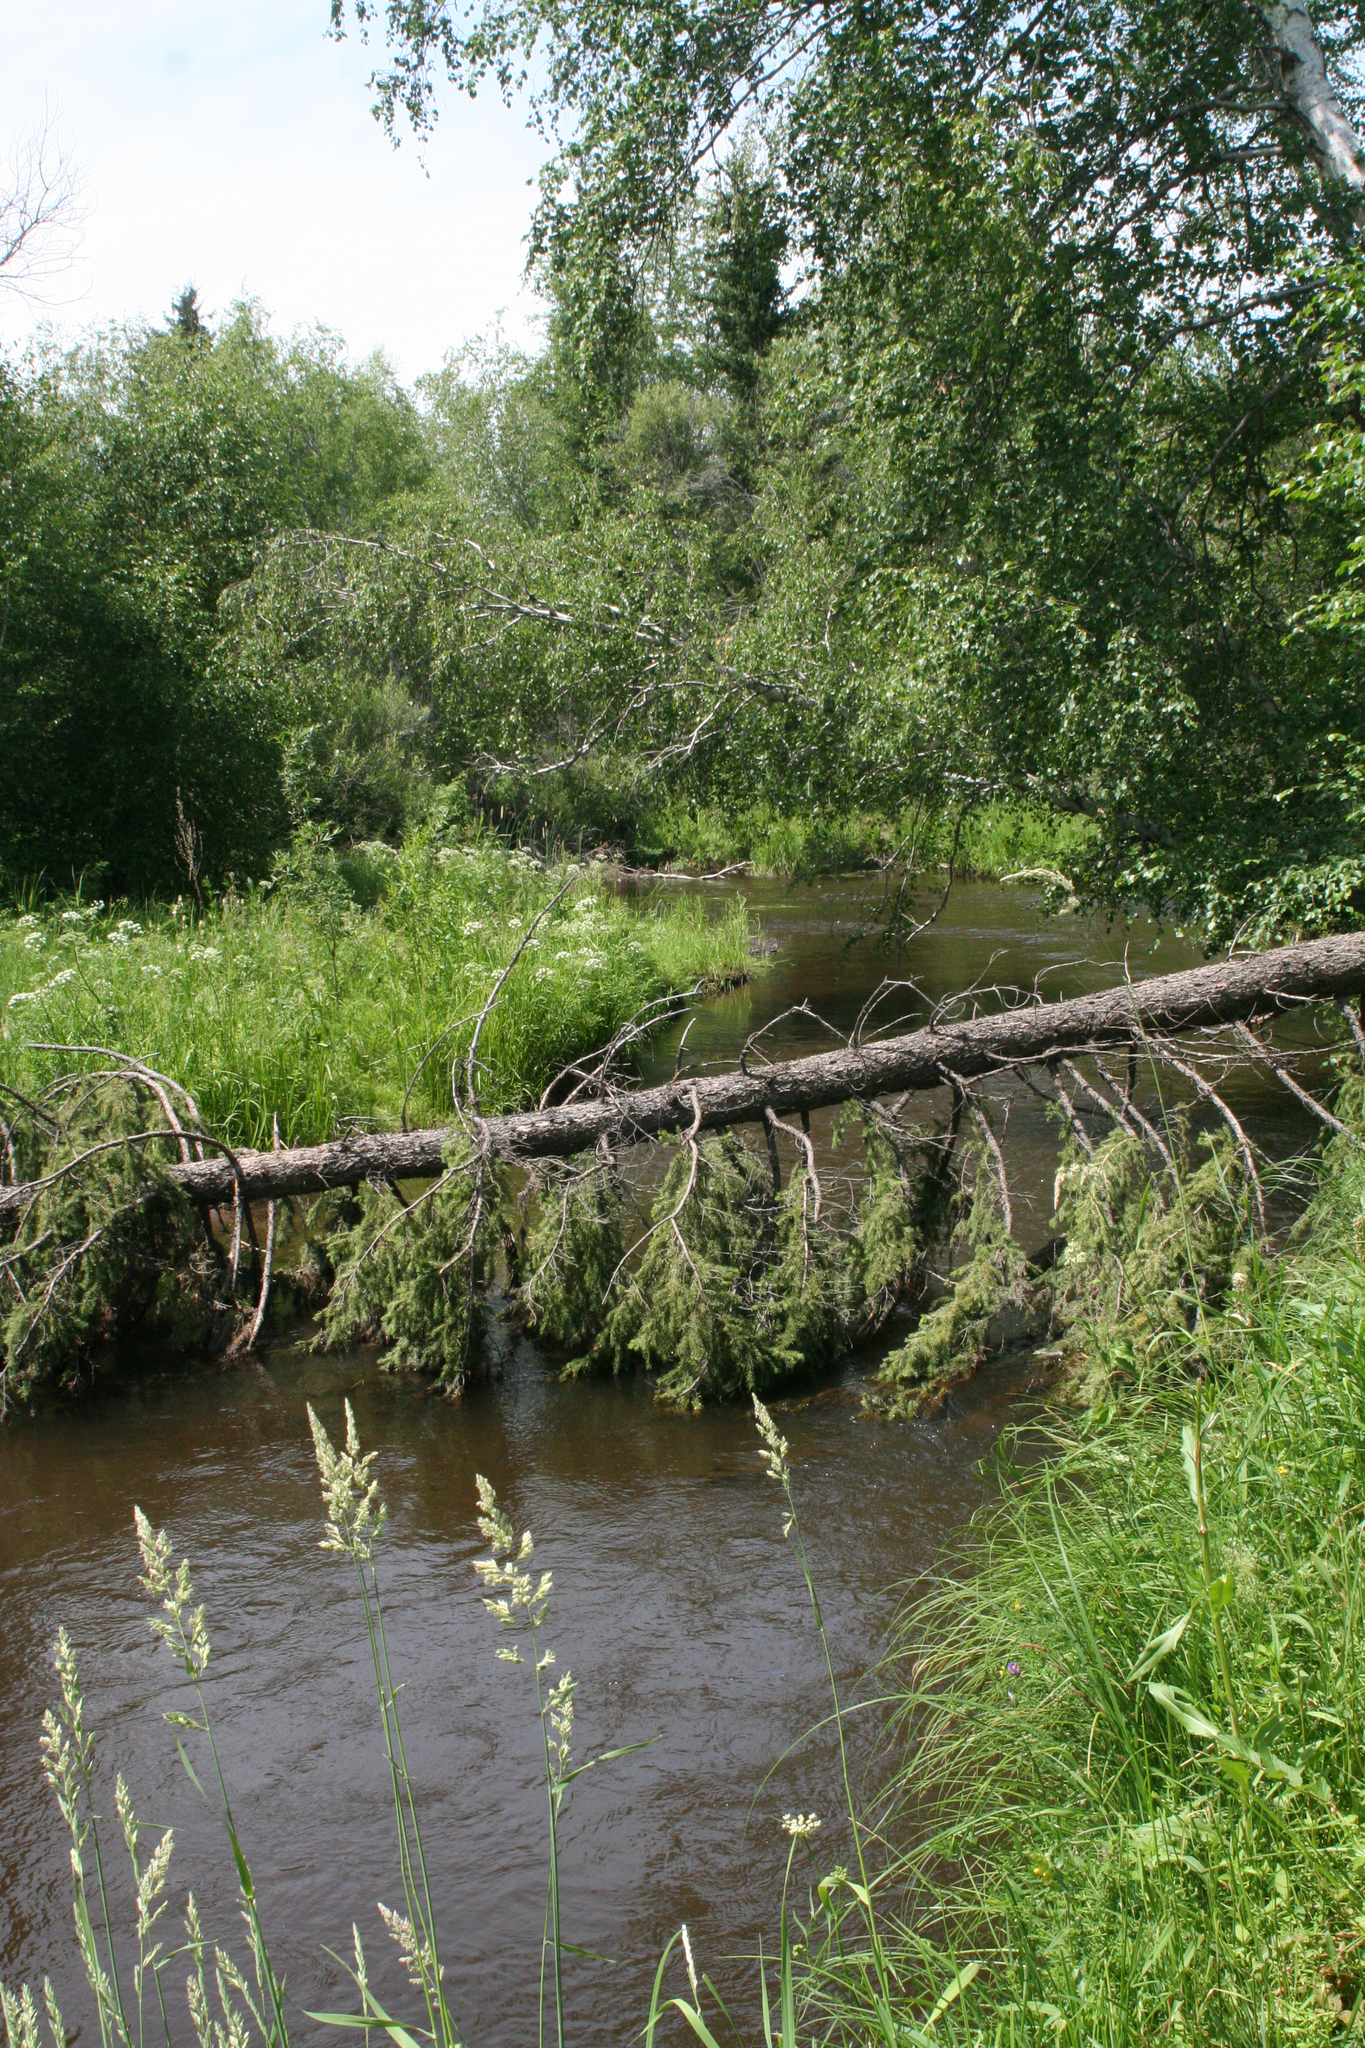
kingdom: Plantae
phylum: Tracheophyta
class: Pinopsida
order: Pinales
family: Pinaceae
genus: Picea
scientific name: Picea obovata
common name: Siberian spruce
